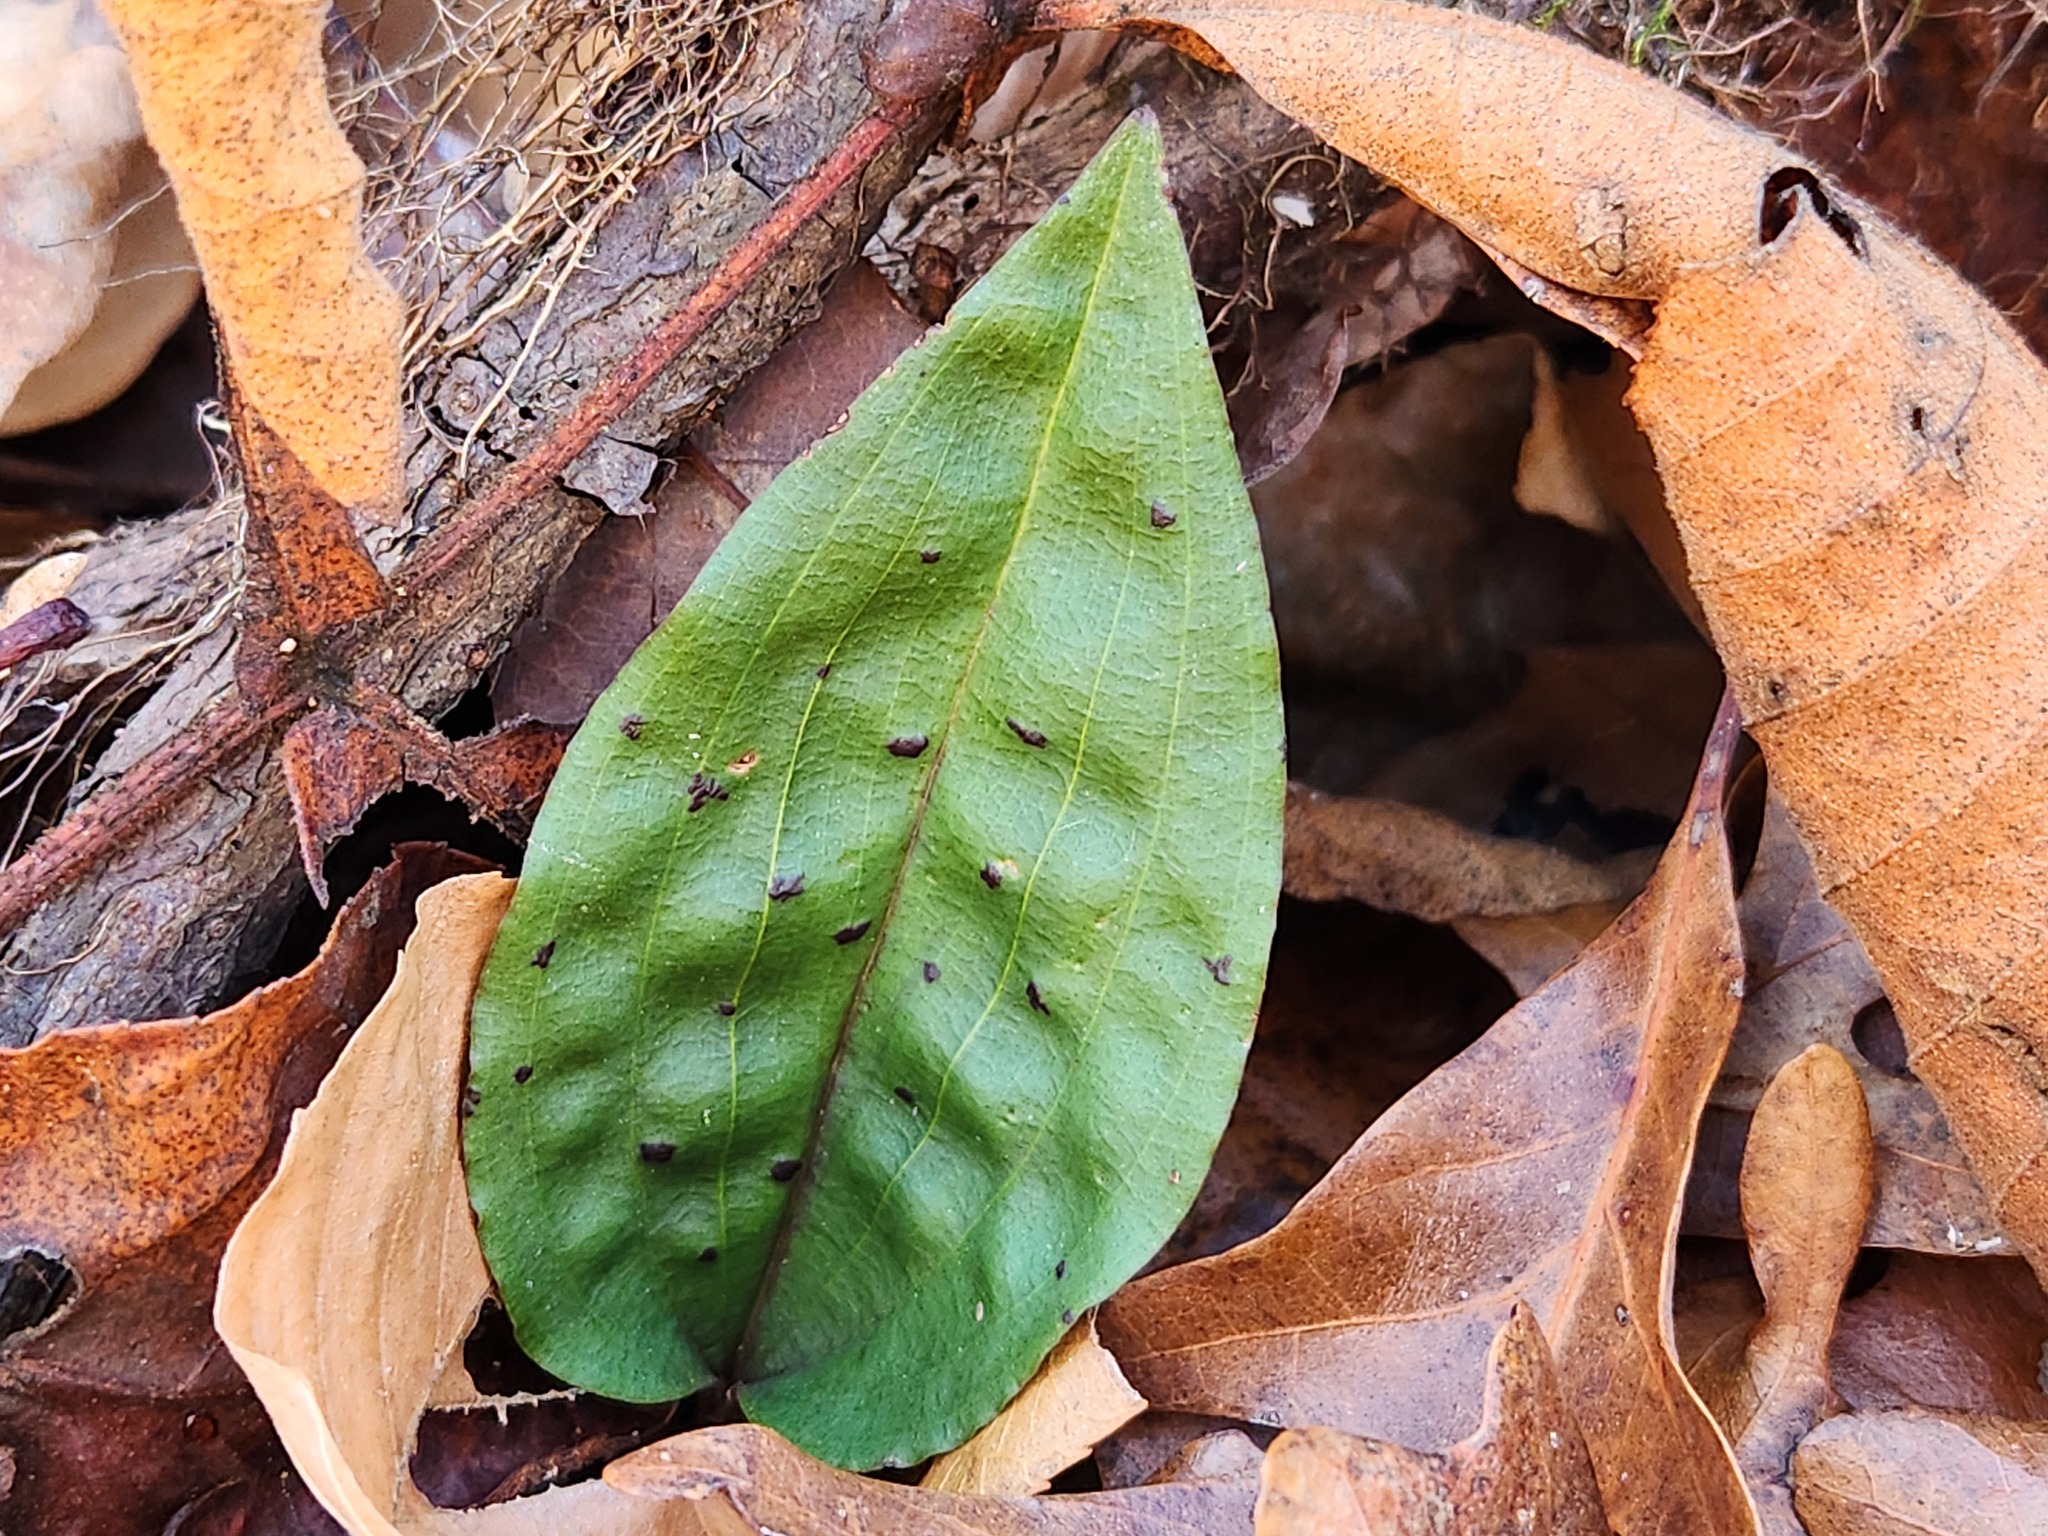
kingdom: Plantae
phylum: Tracheophyta
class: Liliopsida
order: Asparagales
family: Orchidaceae
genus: Tipularia
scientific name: Tipularia discolor
